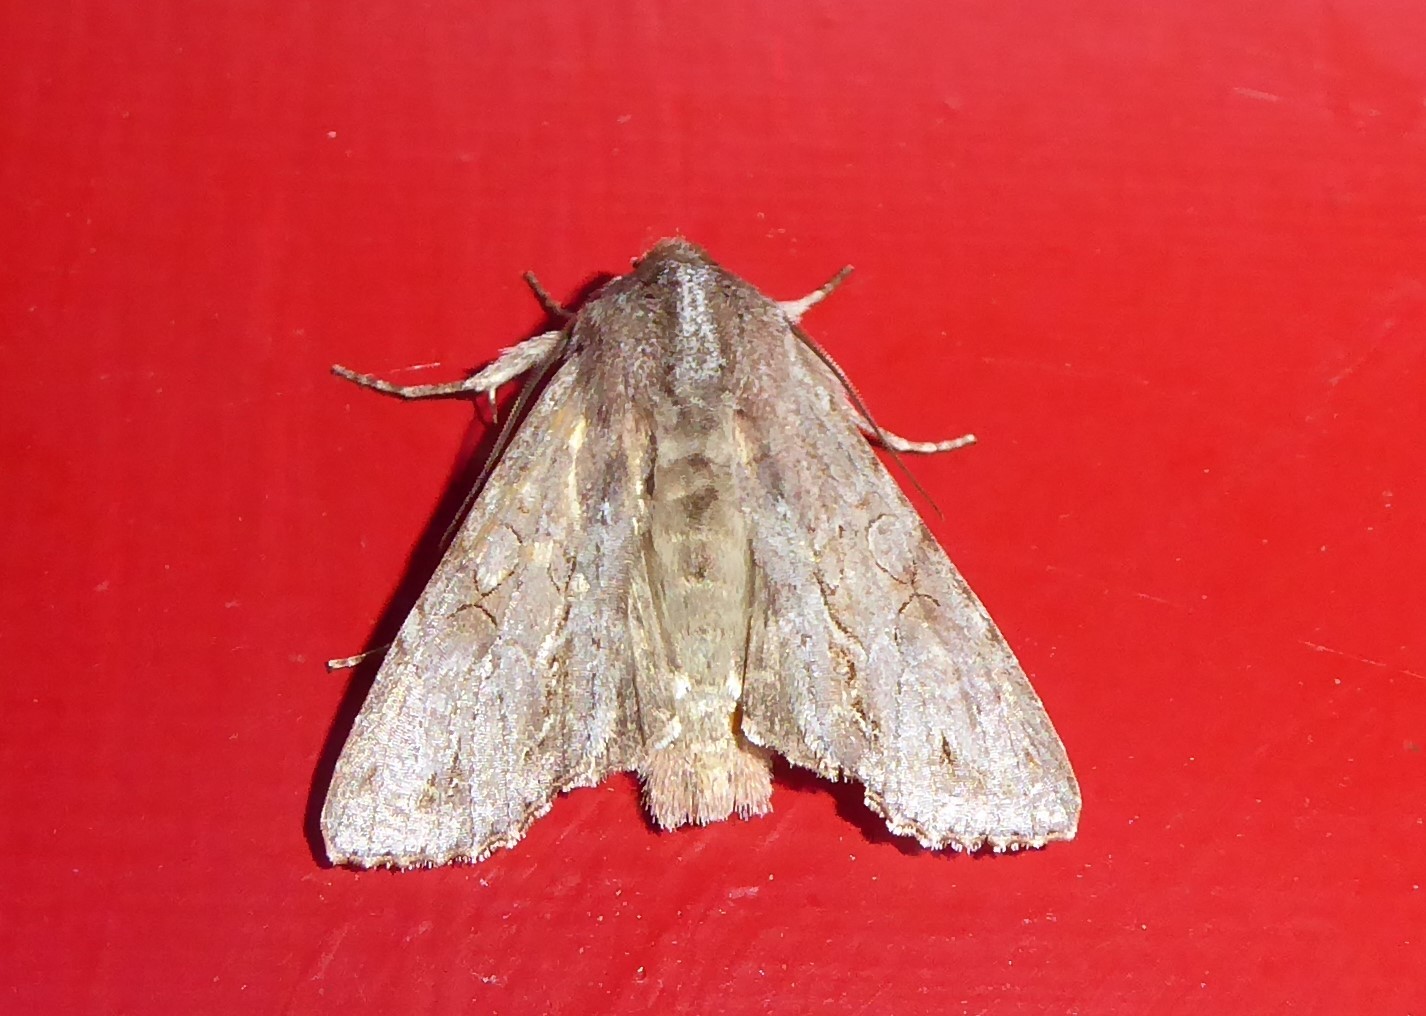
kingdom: Animalia
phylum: Arthropoda
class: Insecta
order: Lepidoptera
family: Noctuidae
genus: Ichneutica
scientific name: Ichneutica
